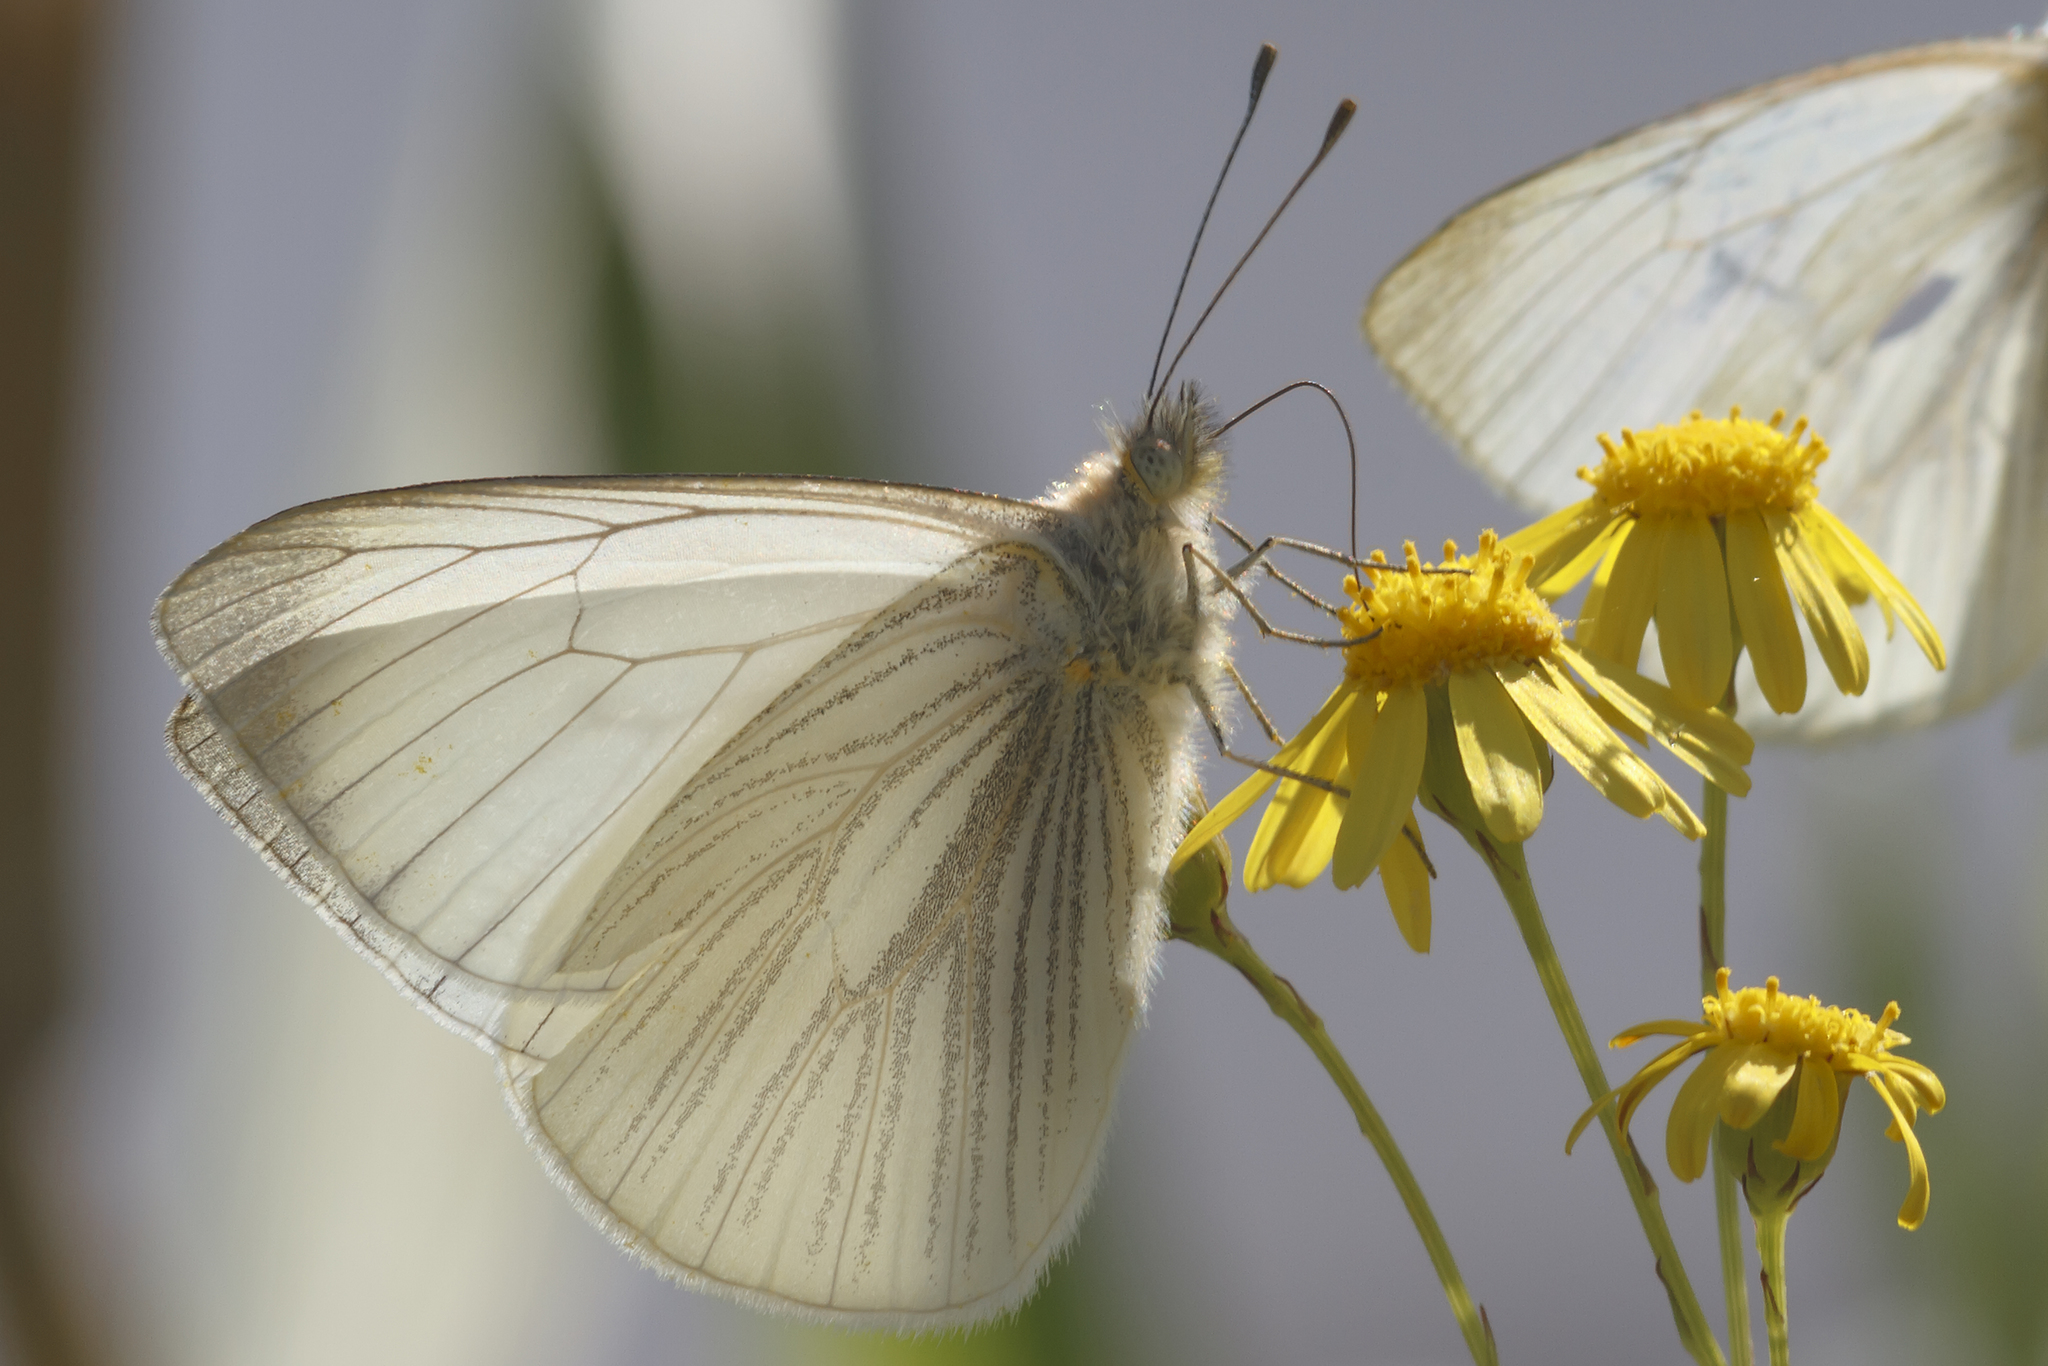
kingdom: Animalia
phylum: Arthropoda
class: Insecta
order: Lepidoptera
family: Pieridae
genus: Theochila
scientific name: Theochila maenacte
